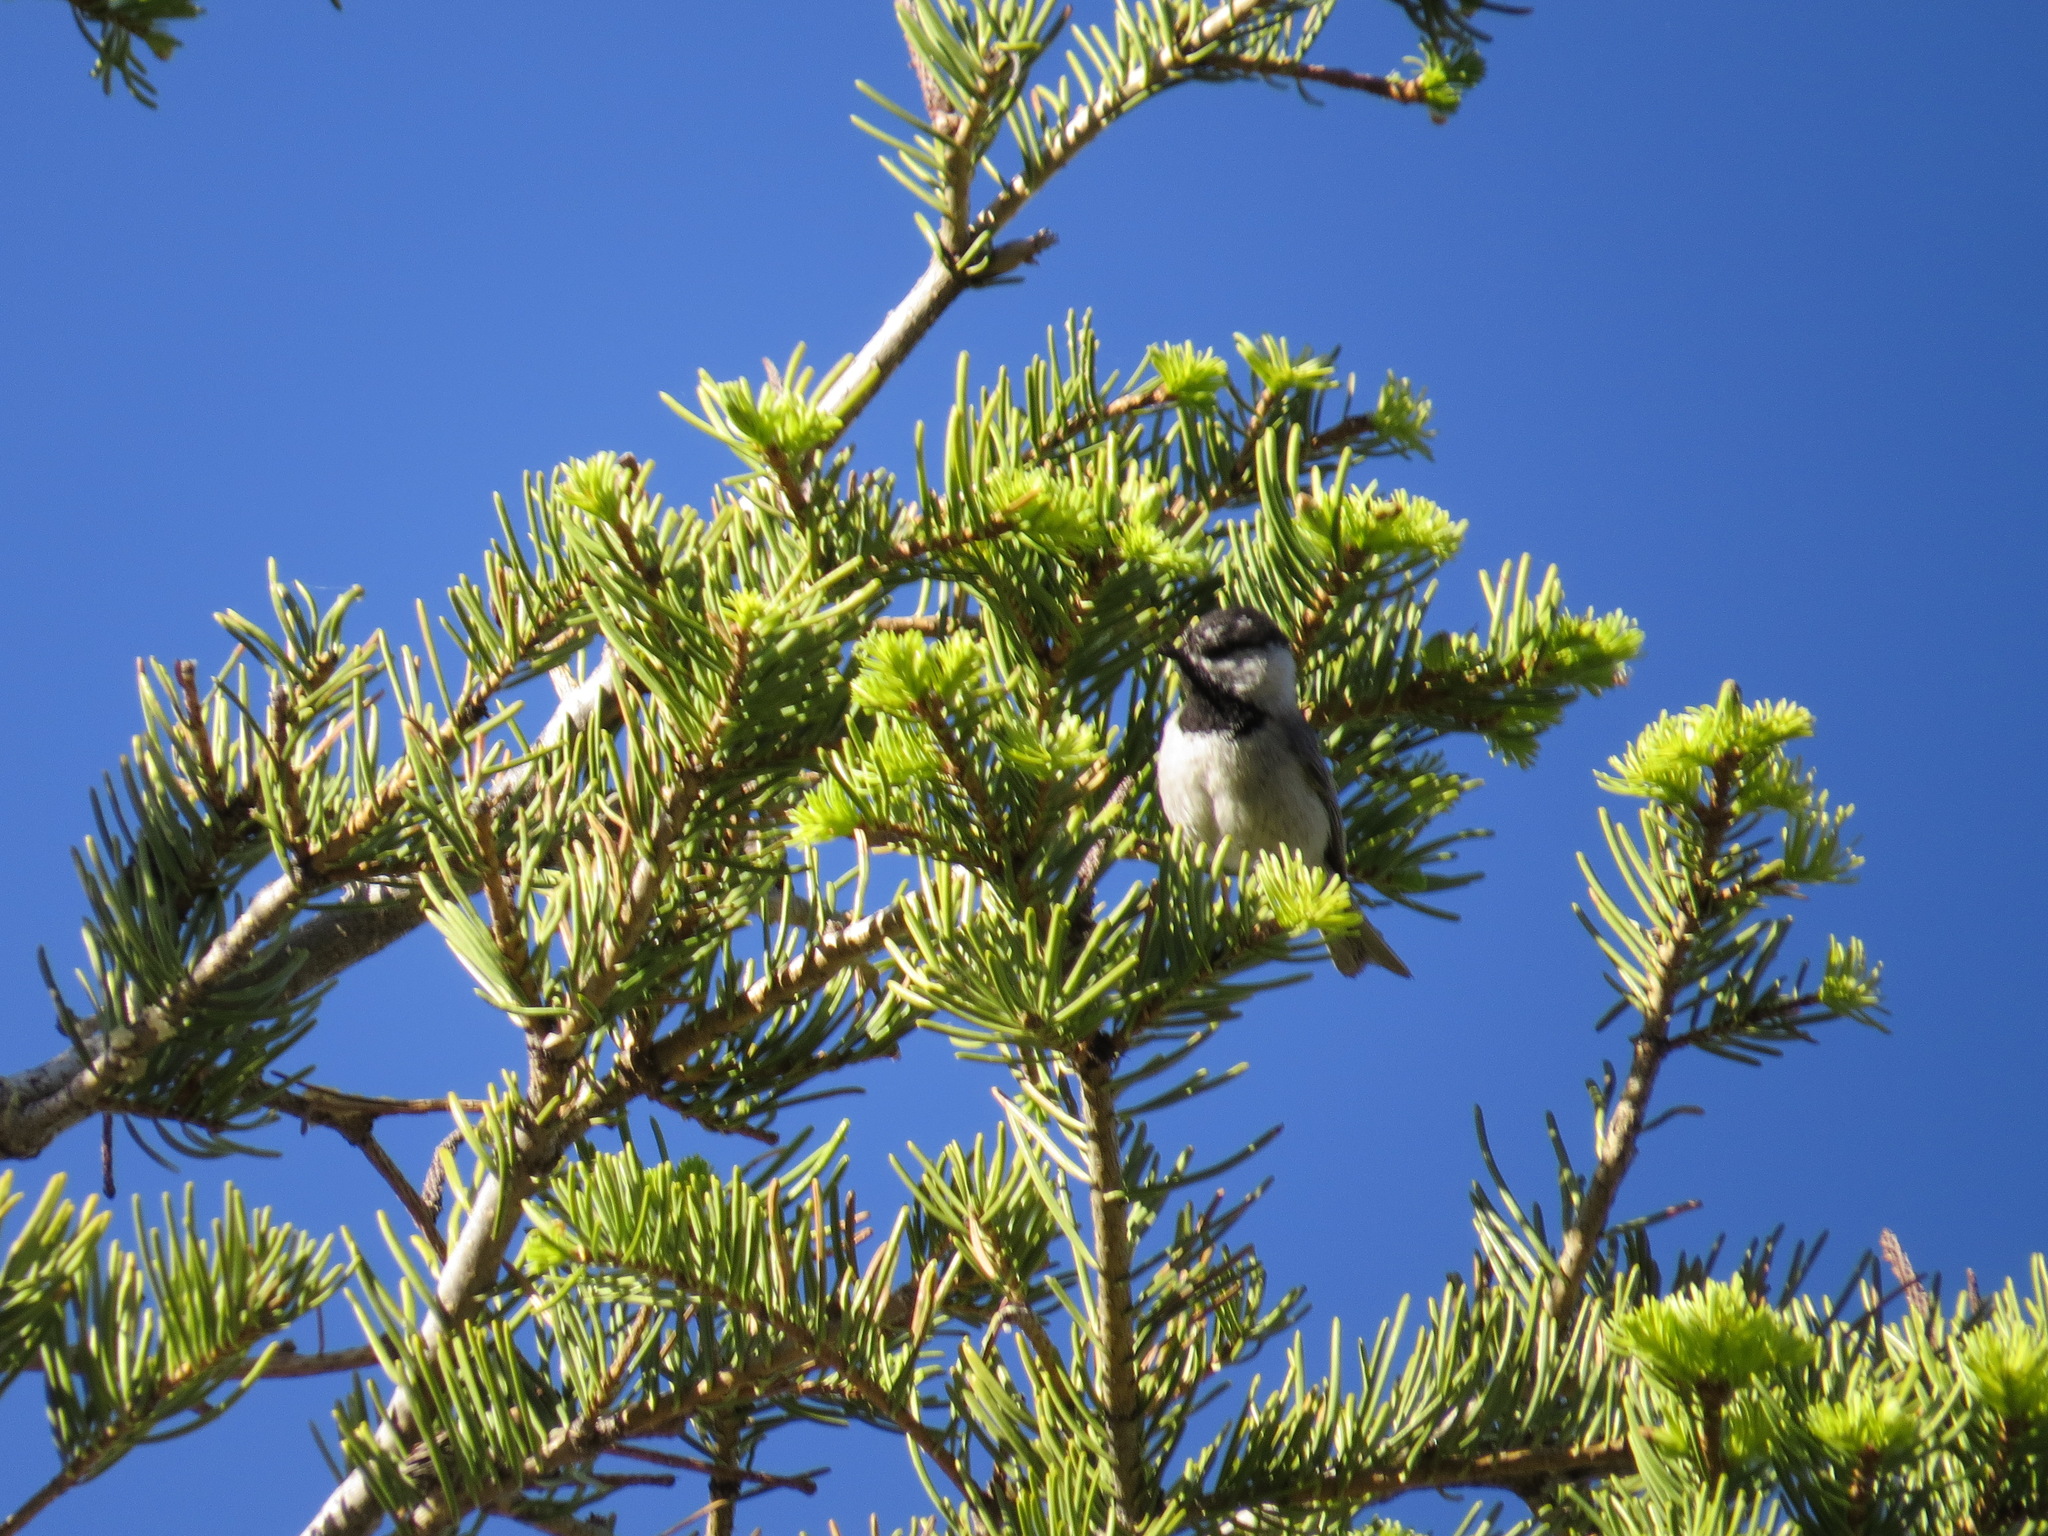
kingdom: Animalia
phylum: Chordata
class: Aves
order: Passeriformes
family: Paridae
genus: Poecile
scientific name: Poecile gambeli
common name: Mountain chickadee
